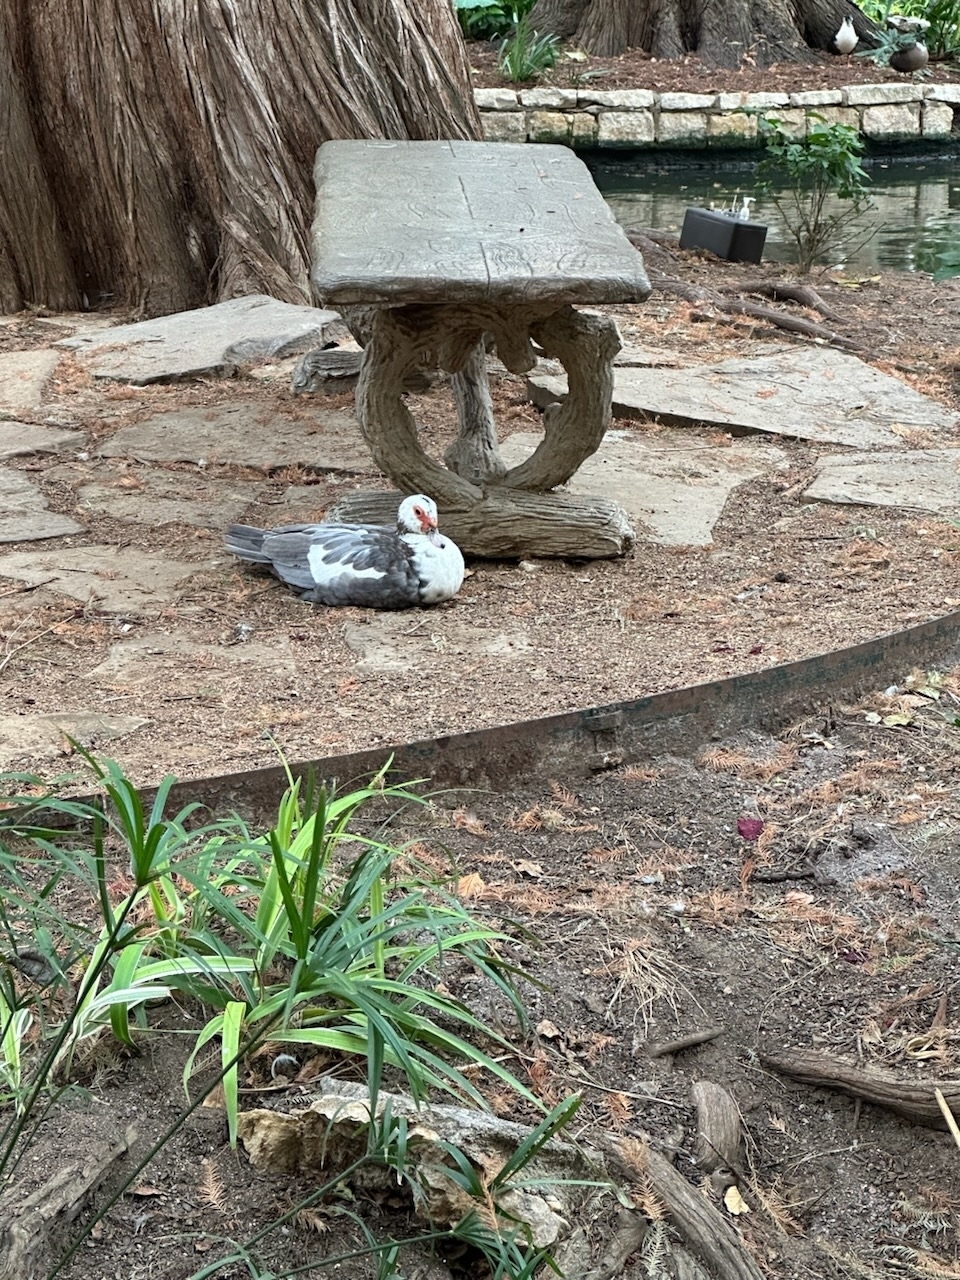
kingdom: Animalia
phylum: Chordata
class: Aves
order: Anseriformes
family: Anatidae
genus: Cairina
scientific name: Cairina moschata
